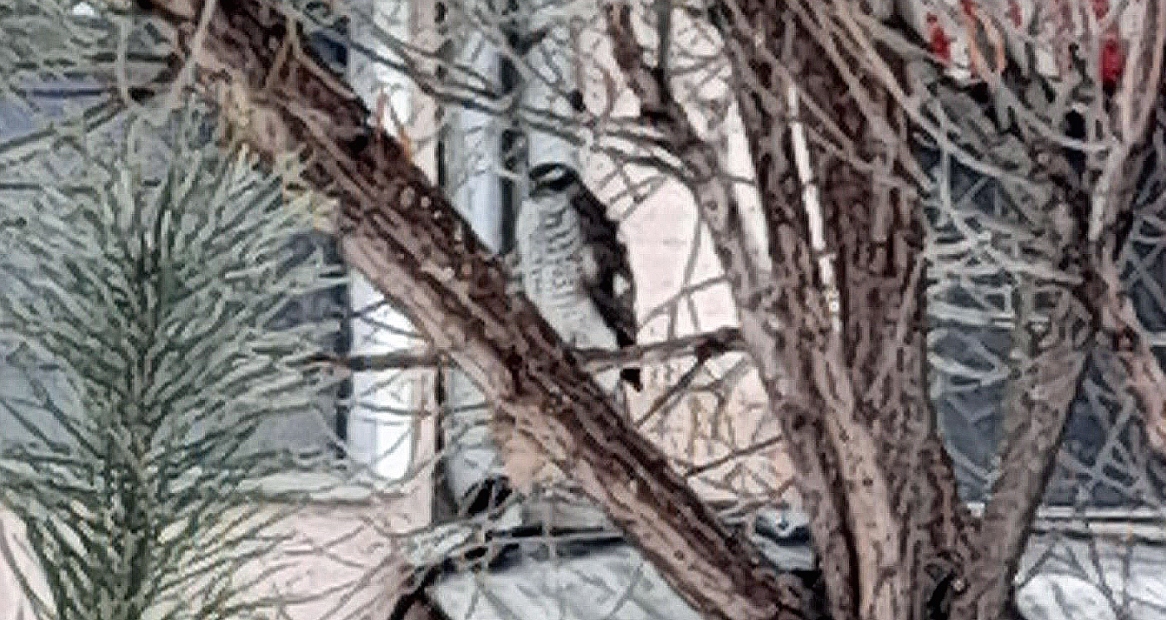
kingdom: Animalia
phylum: Chordata
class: Aves
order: Accipitriformes
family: Accipitridae
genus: Accipiter
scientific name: Accipiter nisus
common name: Eurasian sparrowhawk
